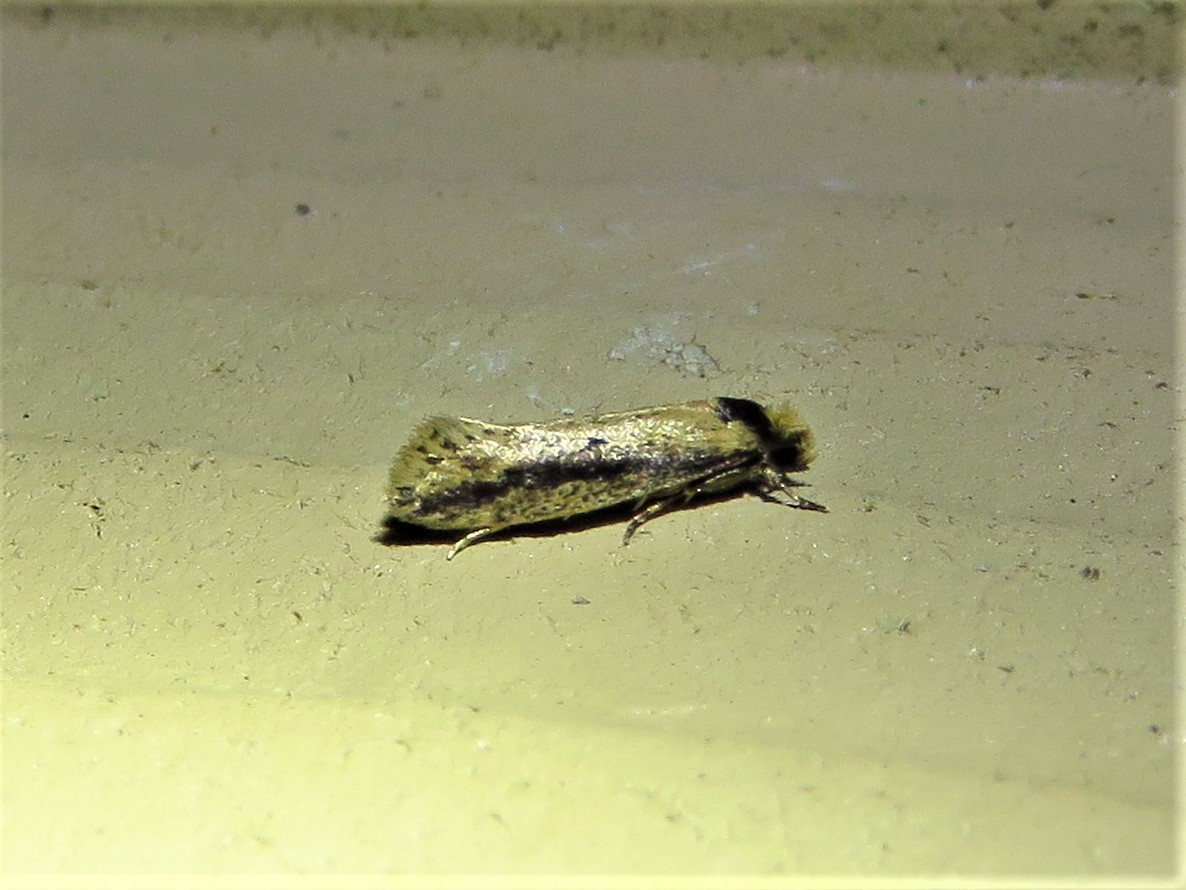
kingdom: Animalia
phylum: Arthropoda
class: Insecta
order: Lepidoptera
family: Tineidae
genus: Tinea
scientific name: Tinea apicimaculella
